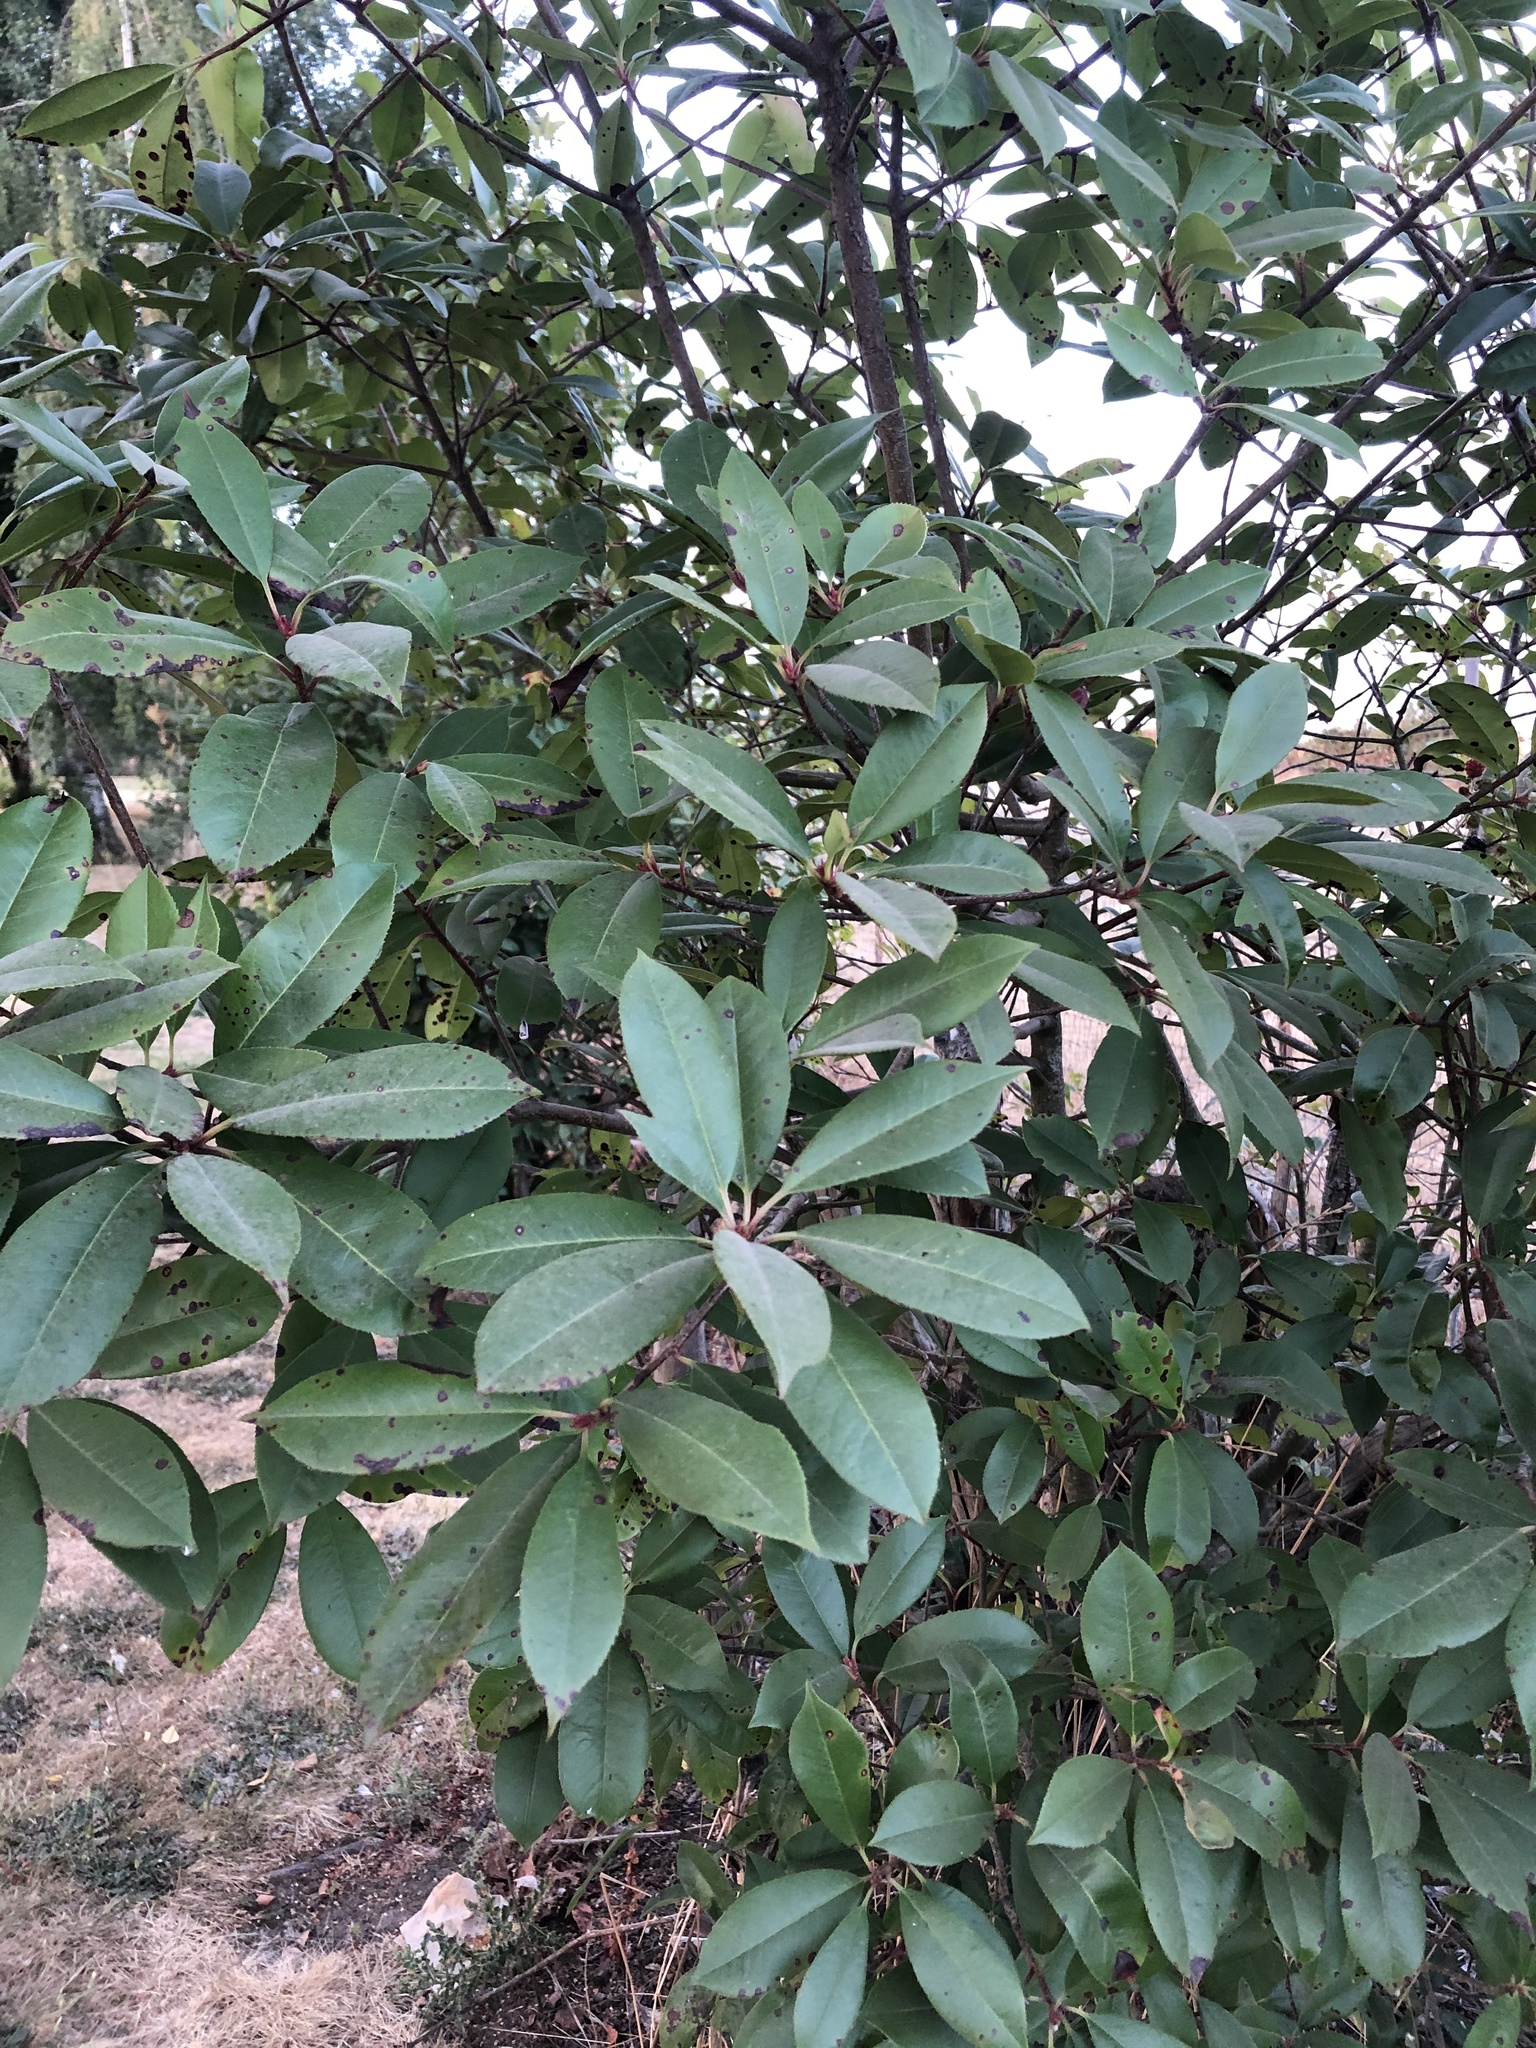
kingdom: Plantae
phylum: Tracheophyta
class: Magnoliopsida
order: Rosales
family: Rosaceae
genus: Photinia
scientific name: Photinia fraseri
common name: Fraser's photinia
